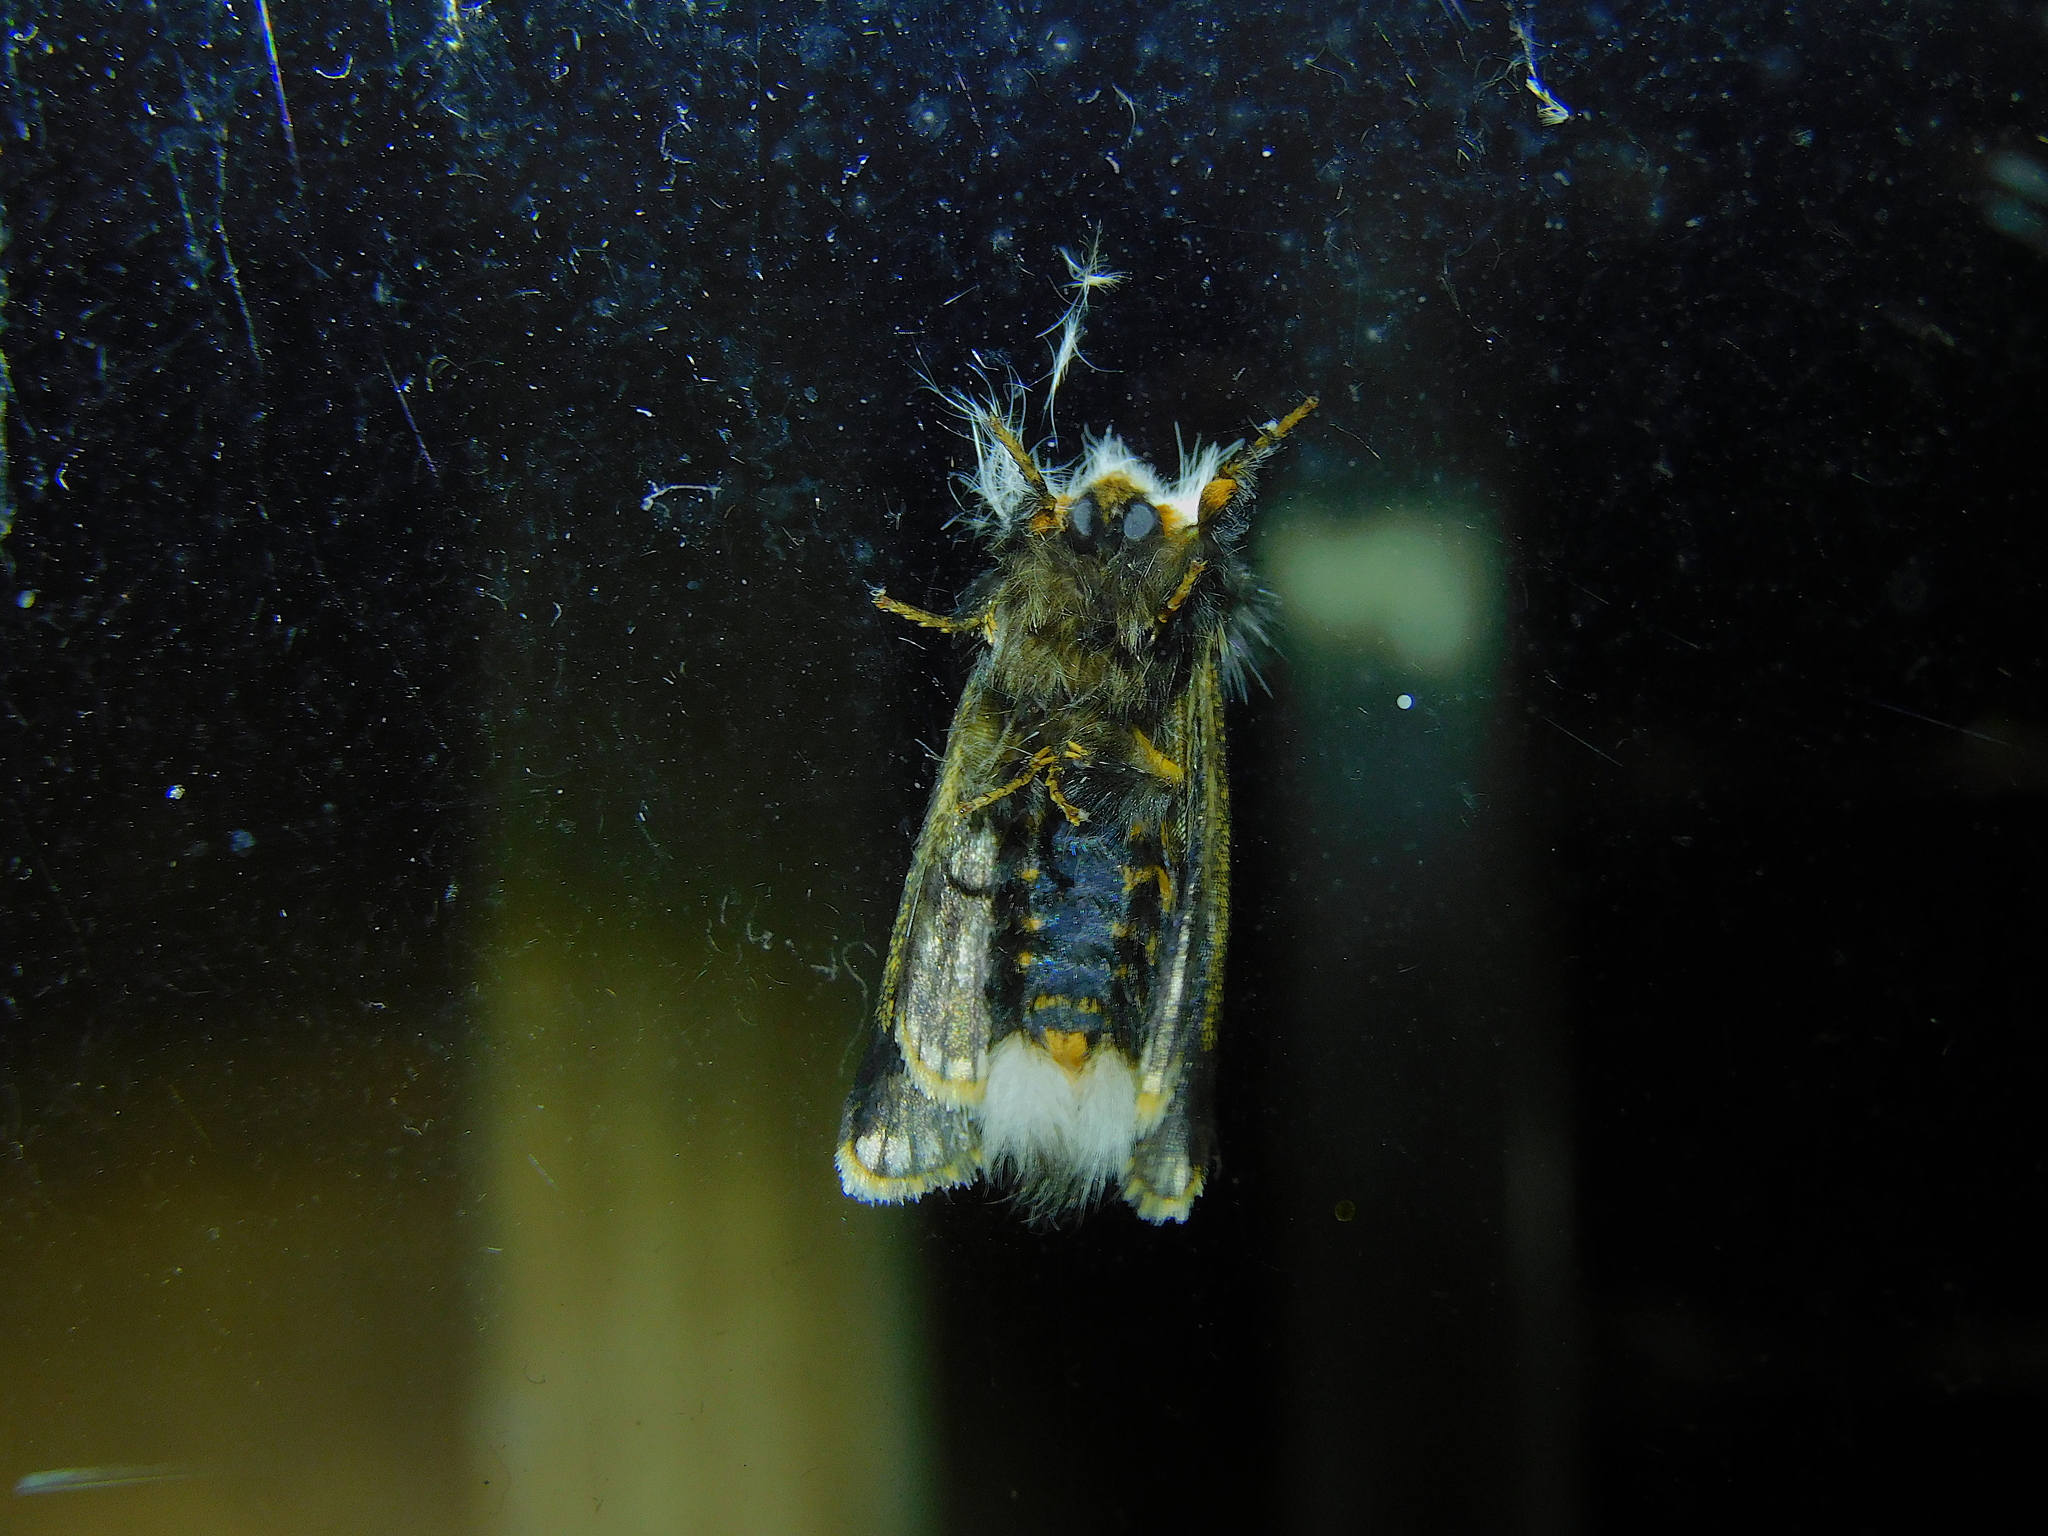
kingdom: Animalia
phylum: Arthropoda
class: Insecta
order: Lepidoptera
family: Notodontidae
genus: Epicoma
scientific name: Epicoma melanospila
